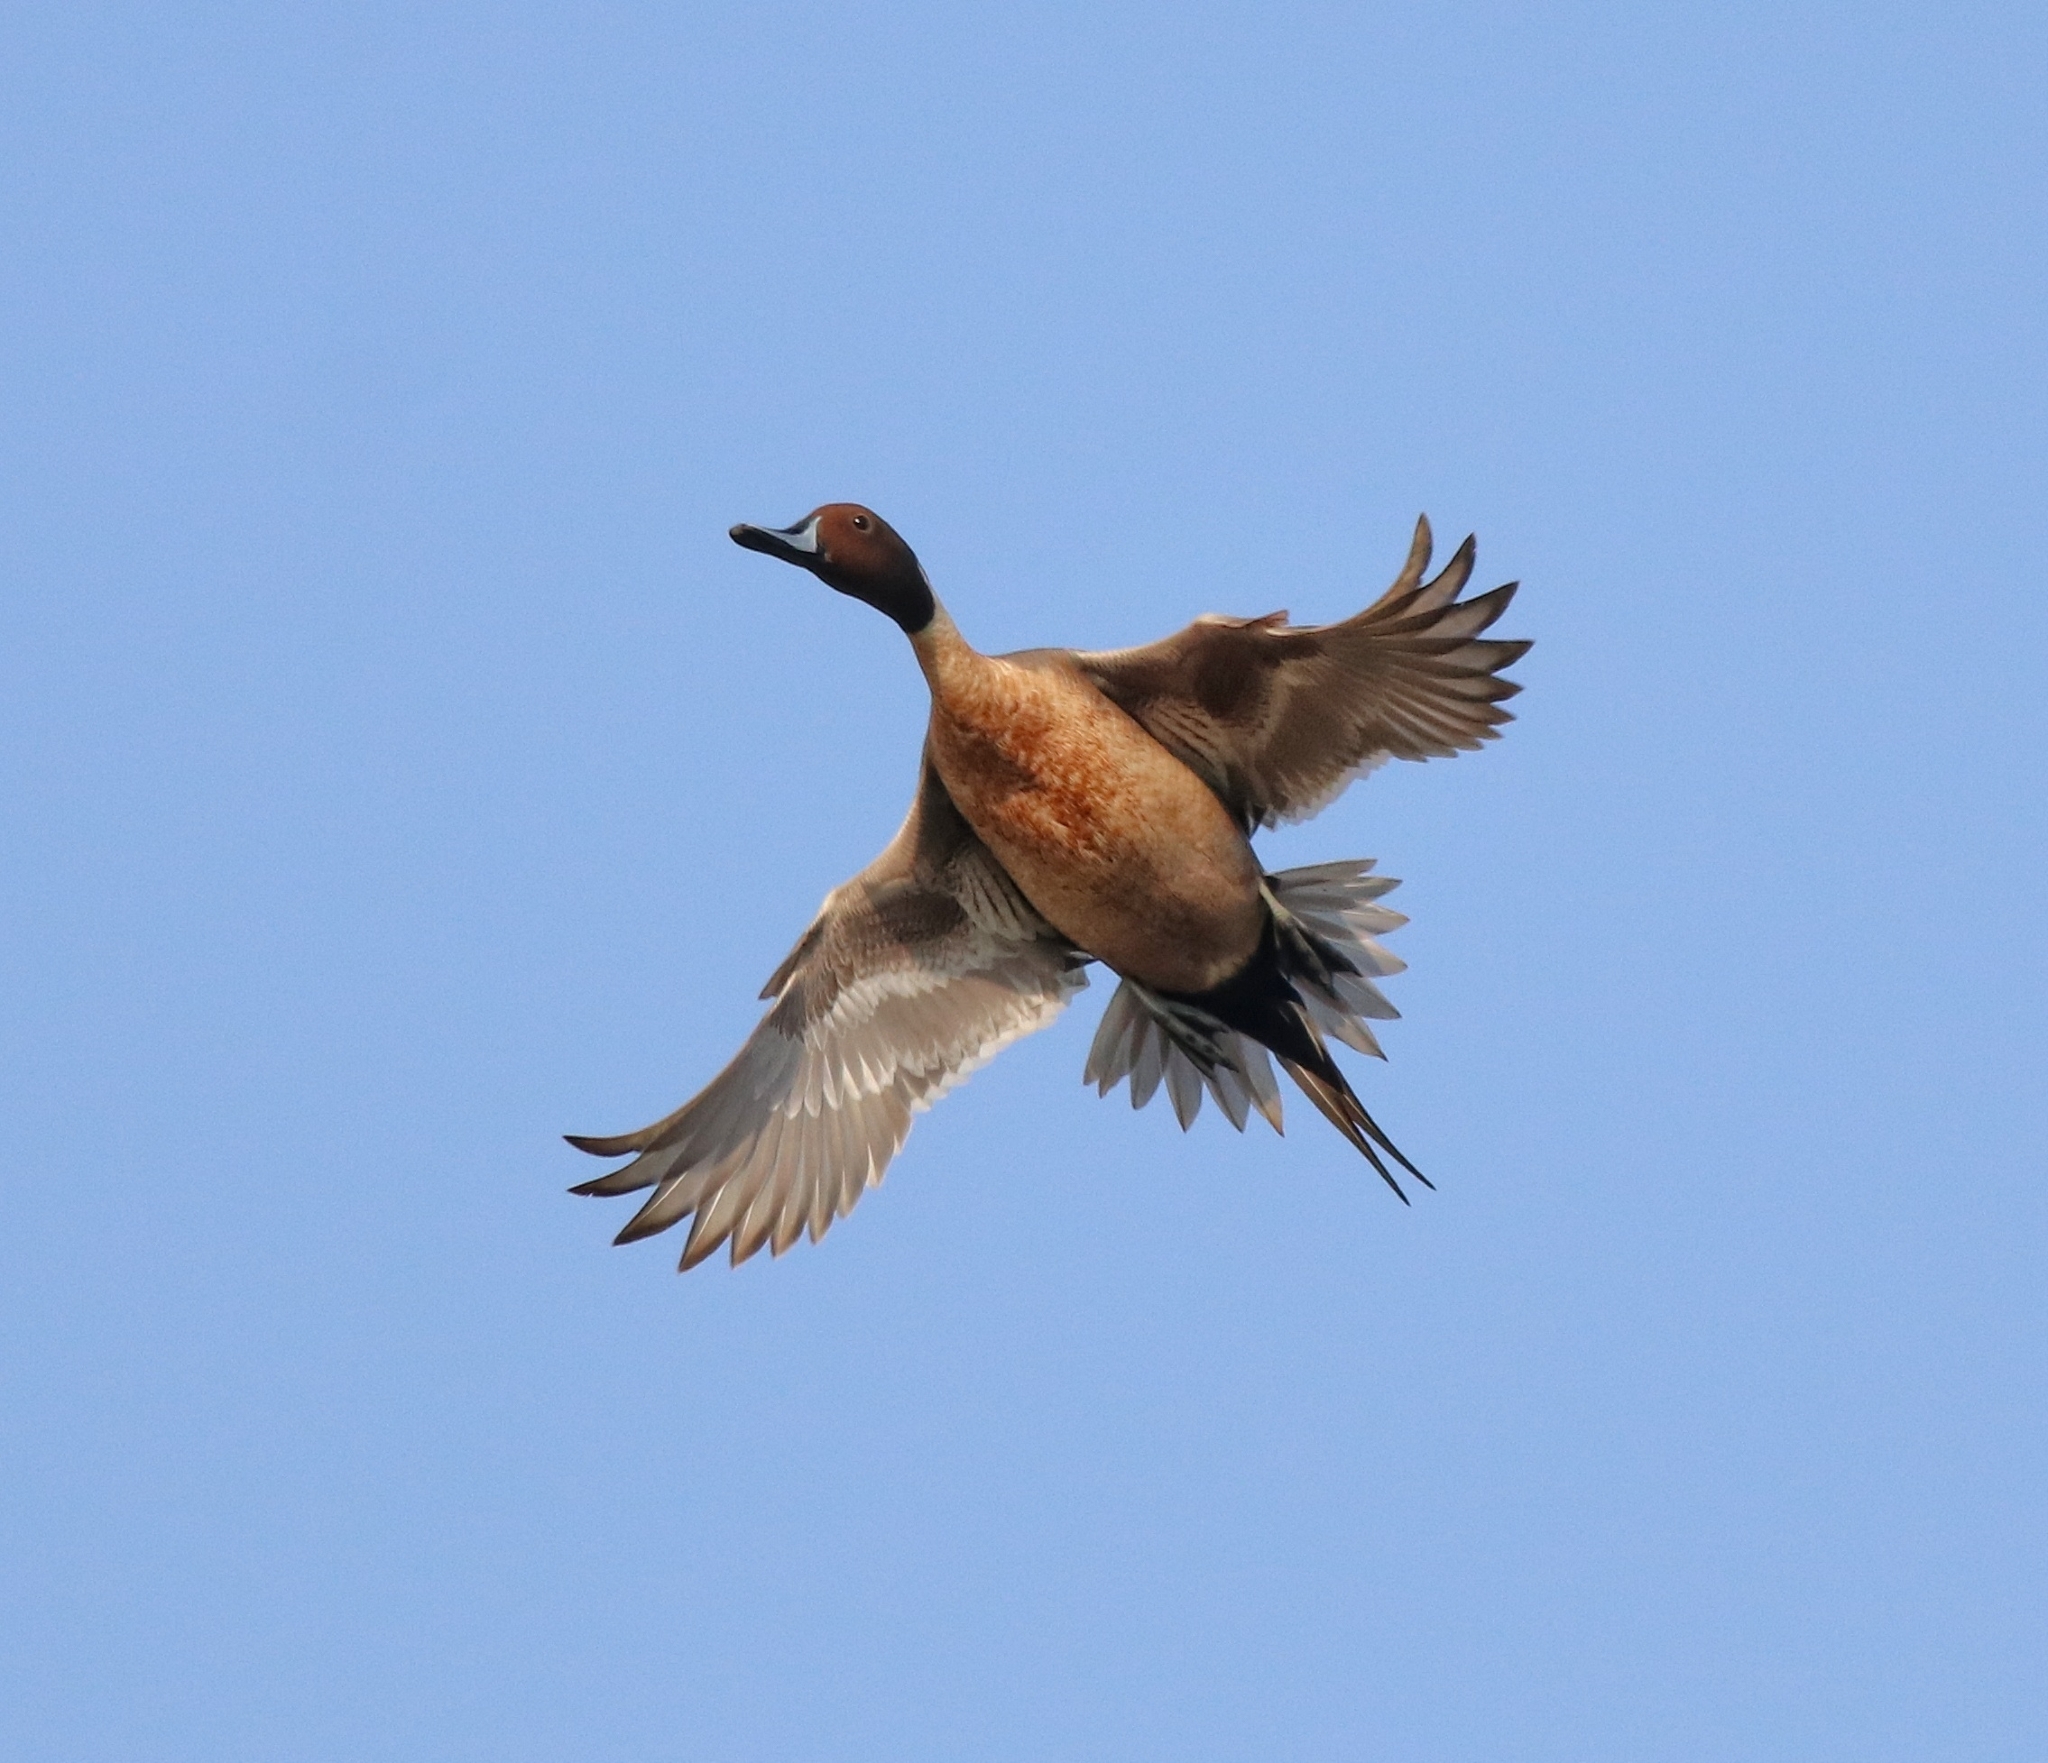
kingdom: Animalia
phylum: Chordata
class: Aves
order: Anseriformes
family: Anatidae
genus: Anas
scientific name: Anas acuta
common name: Northern pintail
